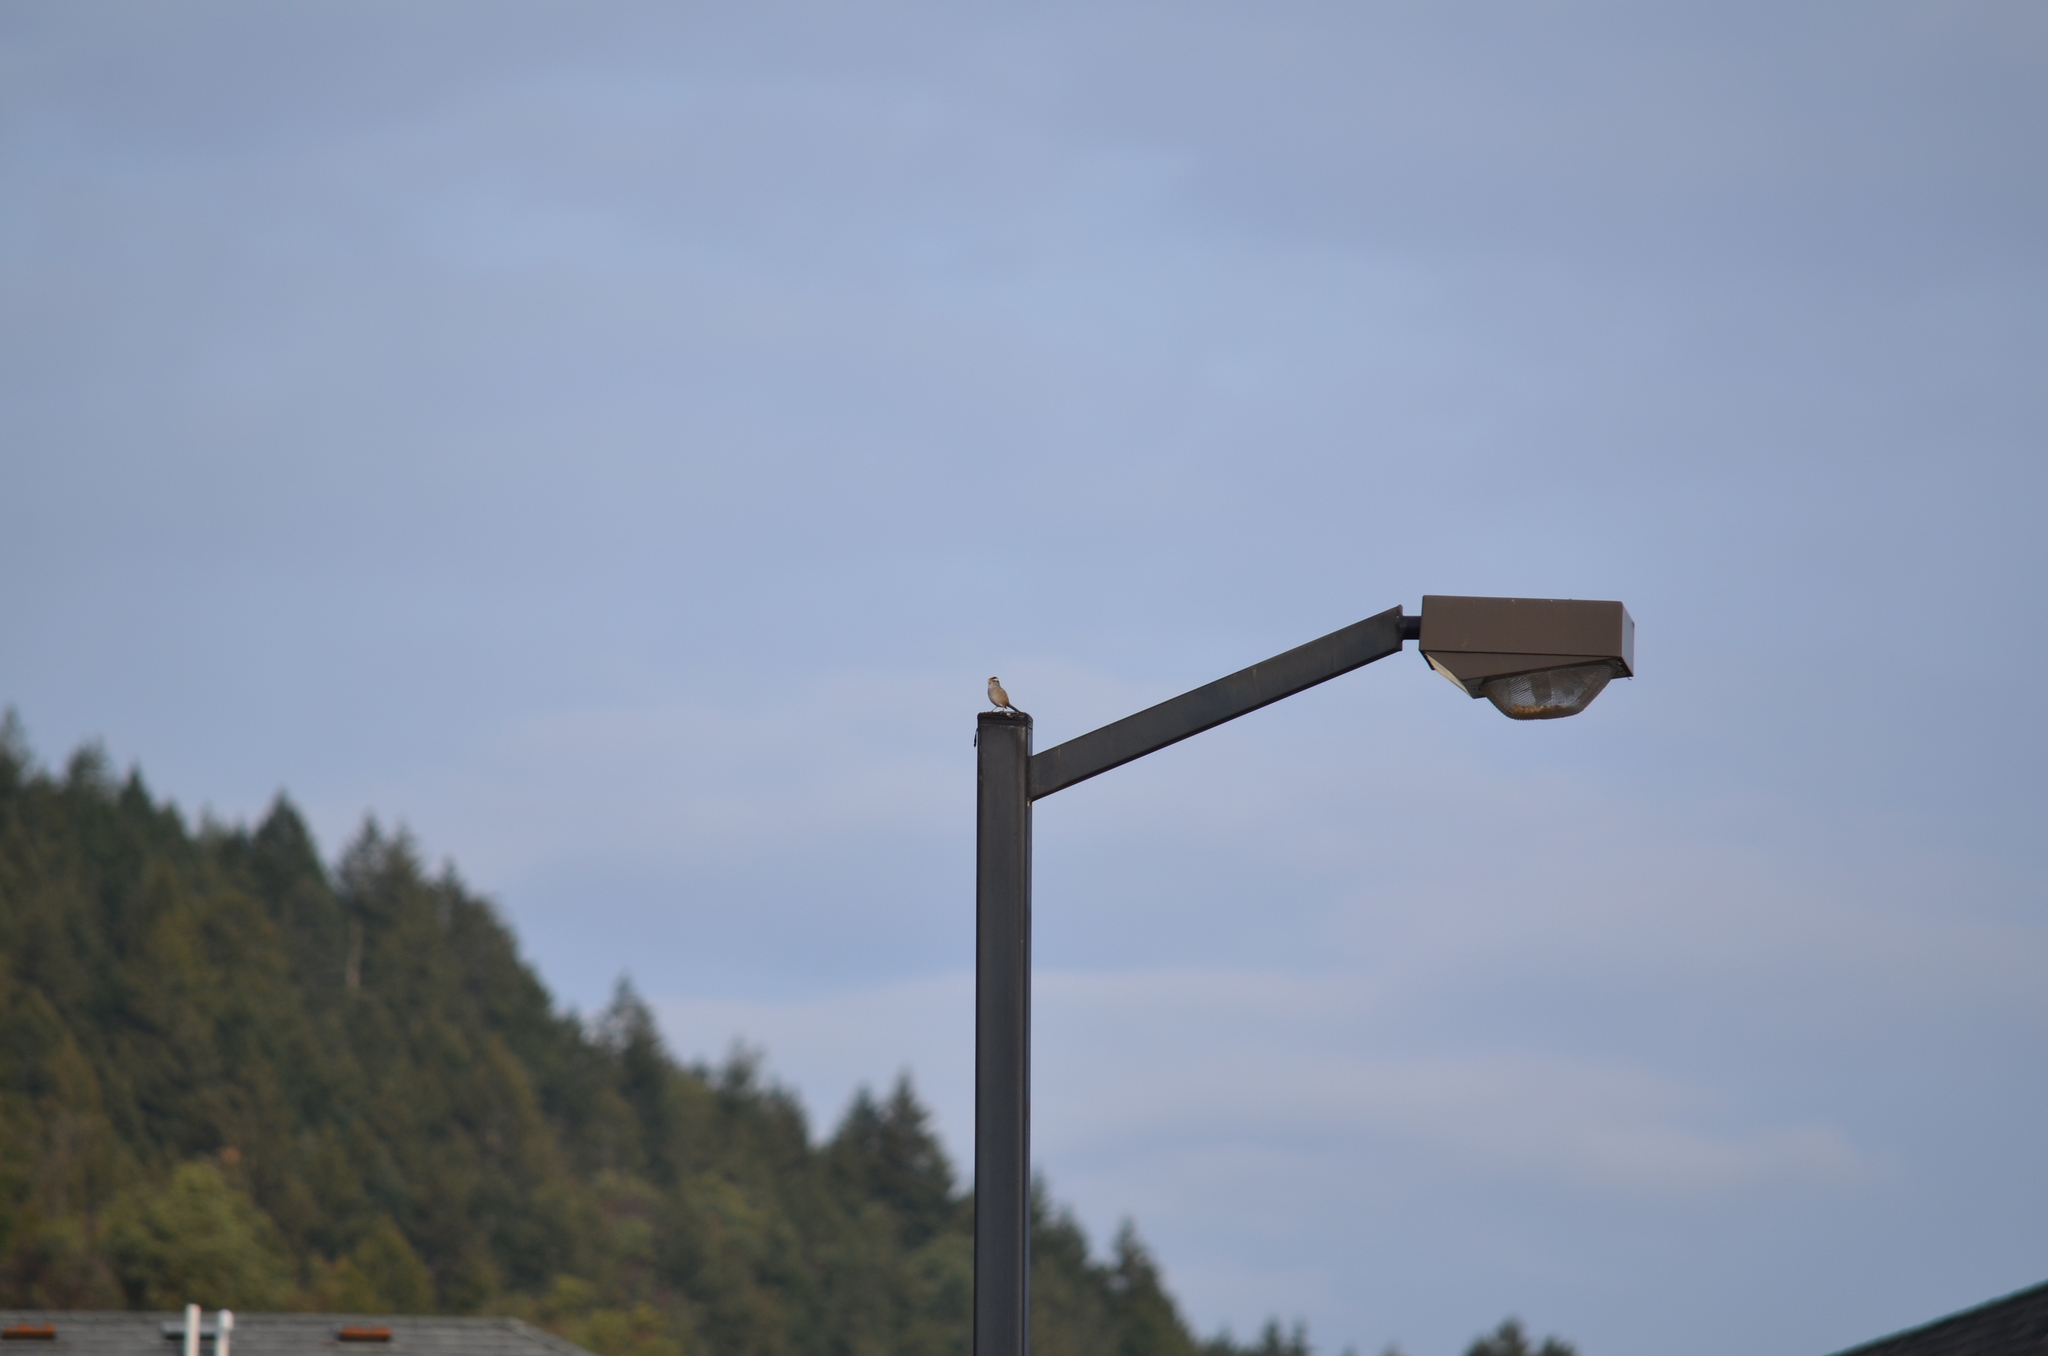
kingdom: Animalia
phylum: Chordata
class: Aves
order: Passeriformes
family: Passerellidae
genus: Zonotrichia
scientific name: Zonotrichia leucophrys
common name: White-crowned sparrow
